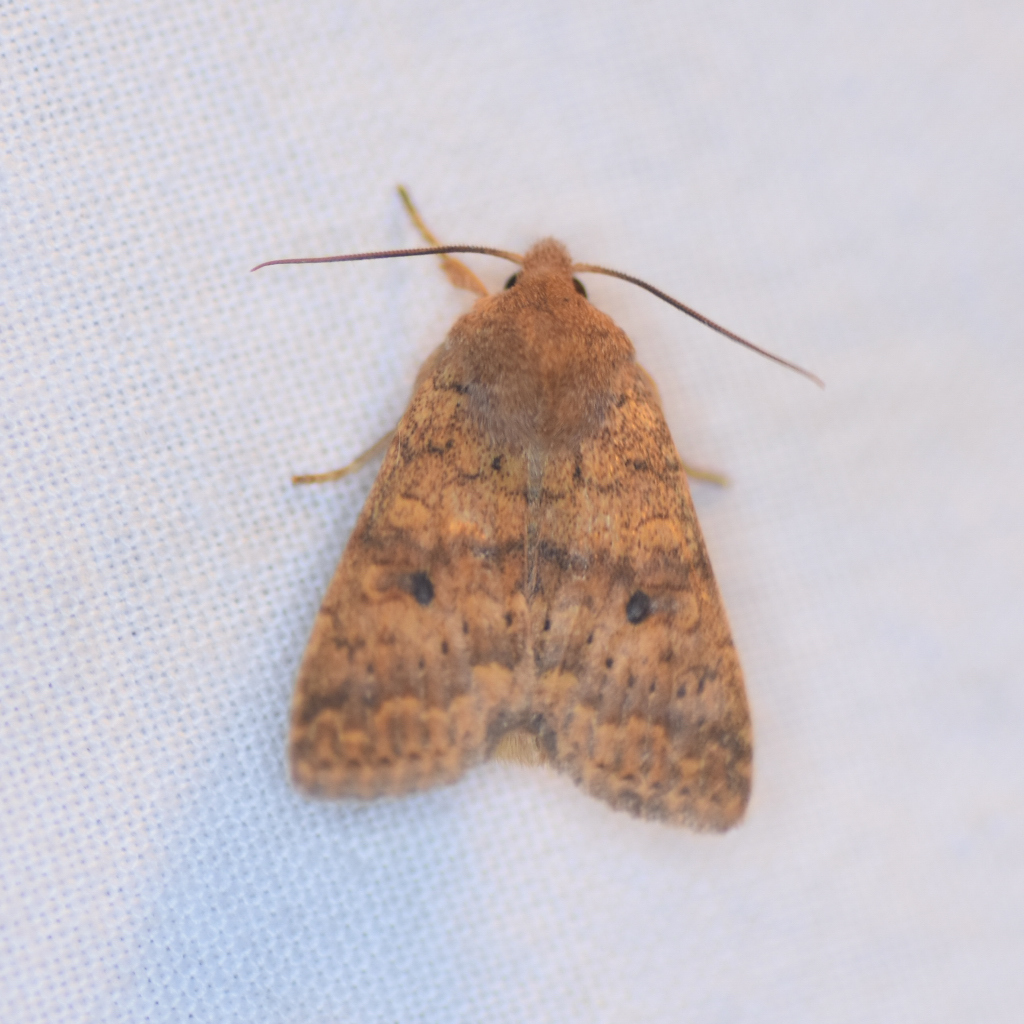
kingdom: Animalia
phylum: Arthropoda
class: Insecta
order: Lepidoptera
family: Noctuidae
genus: Agrochola
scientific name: Agrochola bicolorago
